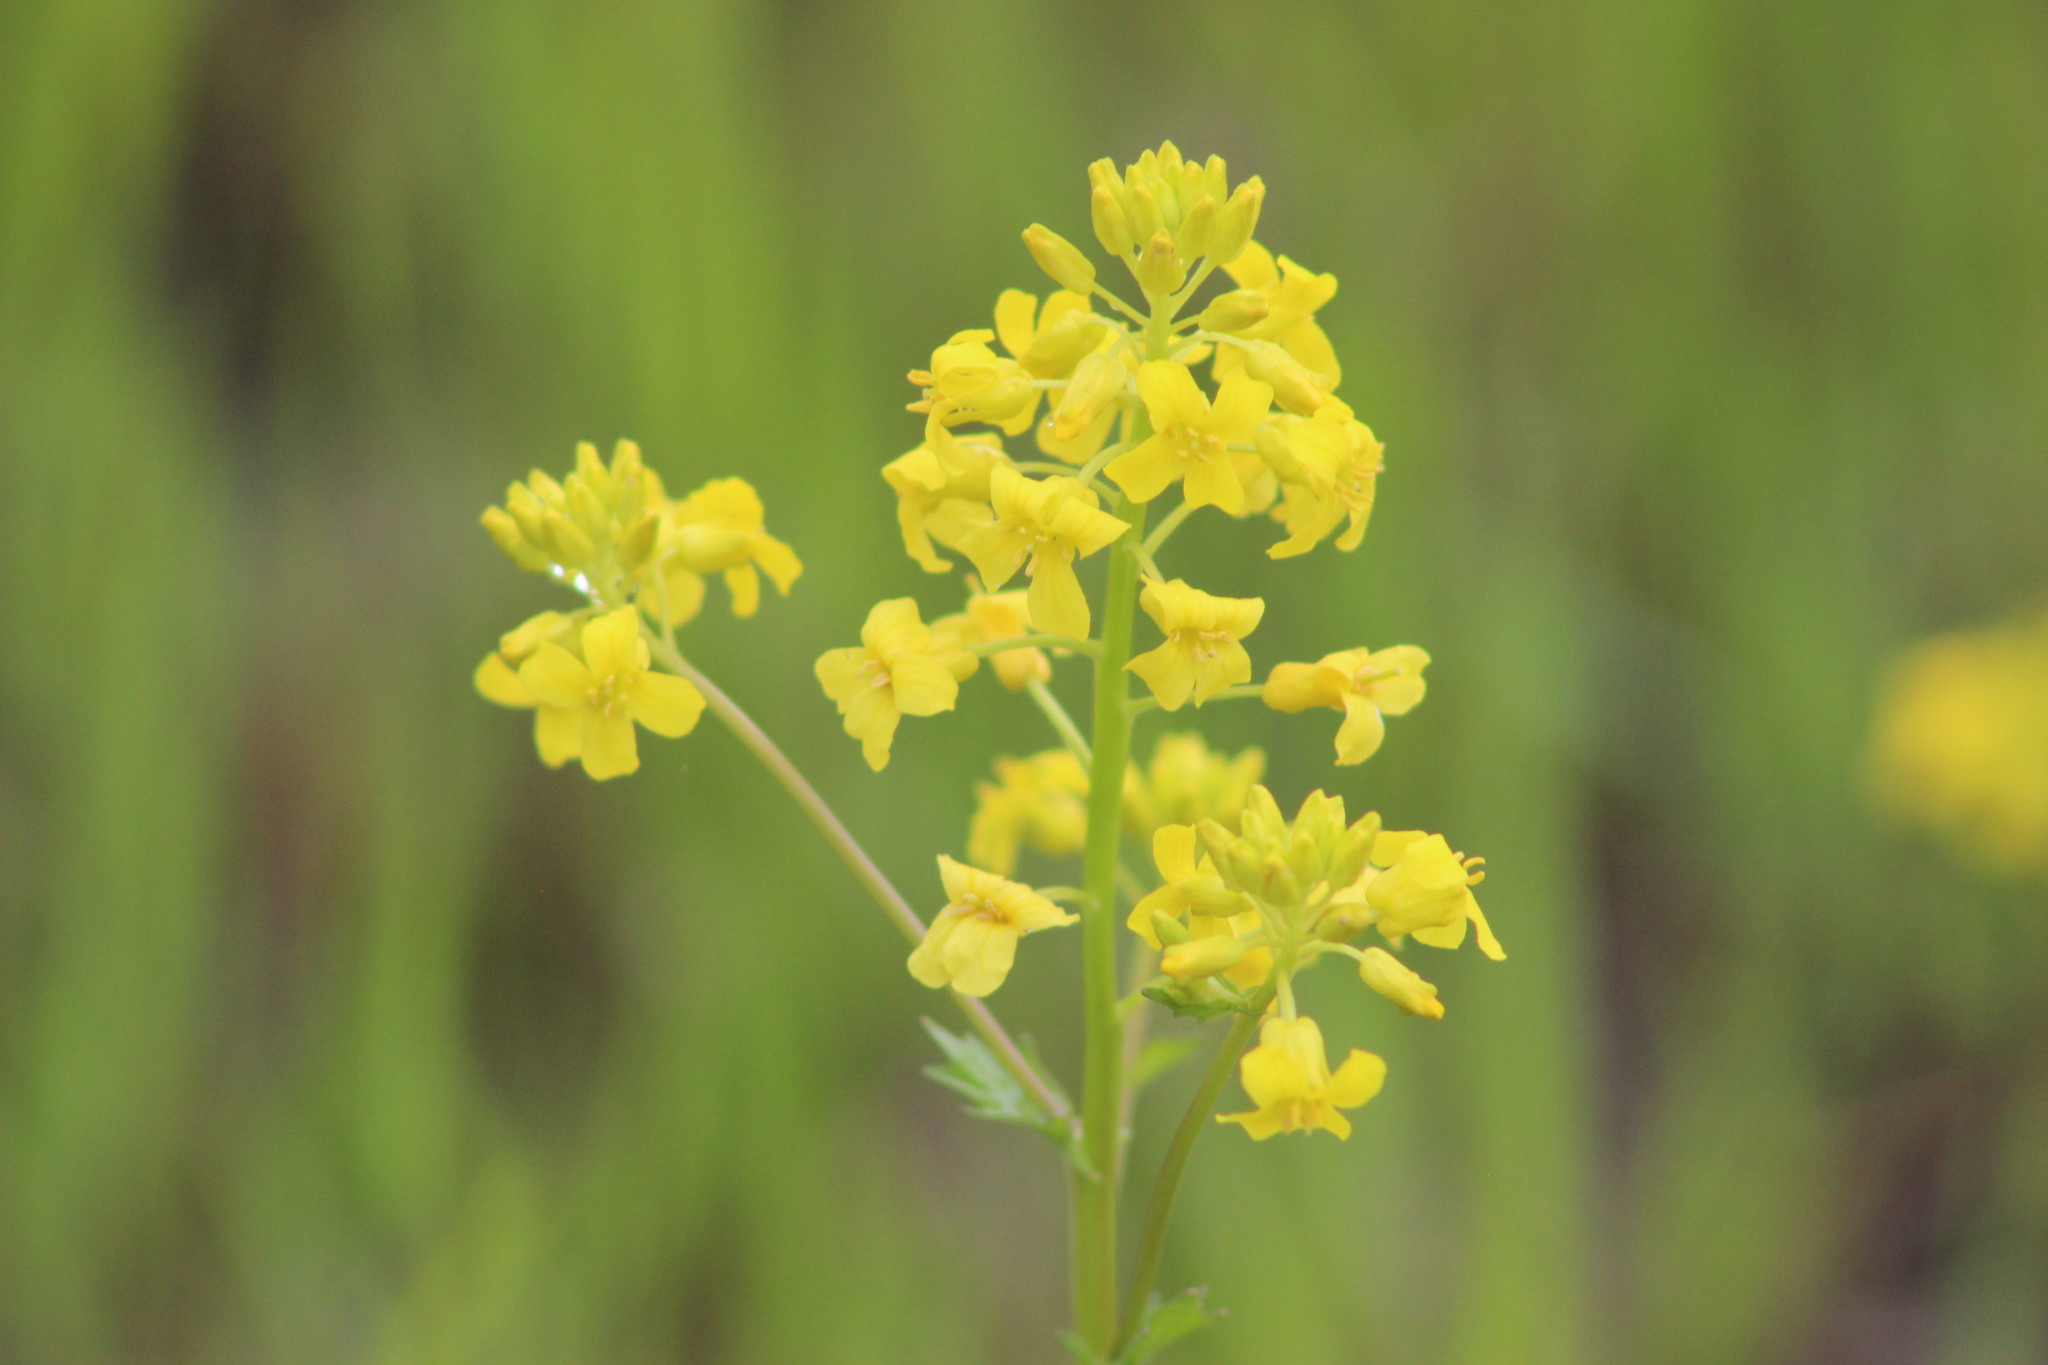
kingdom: Plantae
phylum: Tracheophyta
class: Magnoliopsida
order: Brassicales
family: Brassicaceae
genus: Barbarea
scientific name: Barbarea vulgaris
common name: Cressy-greens
